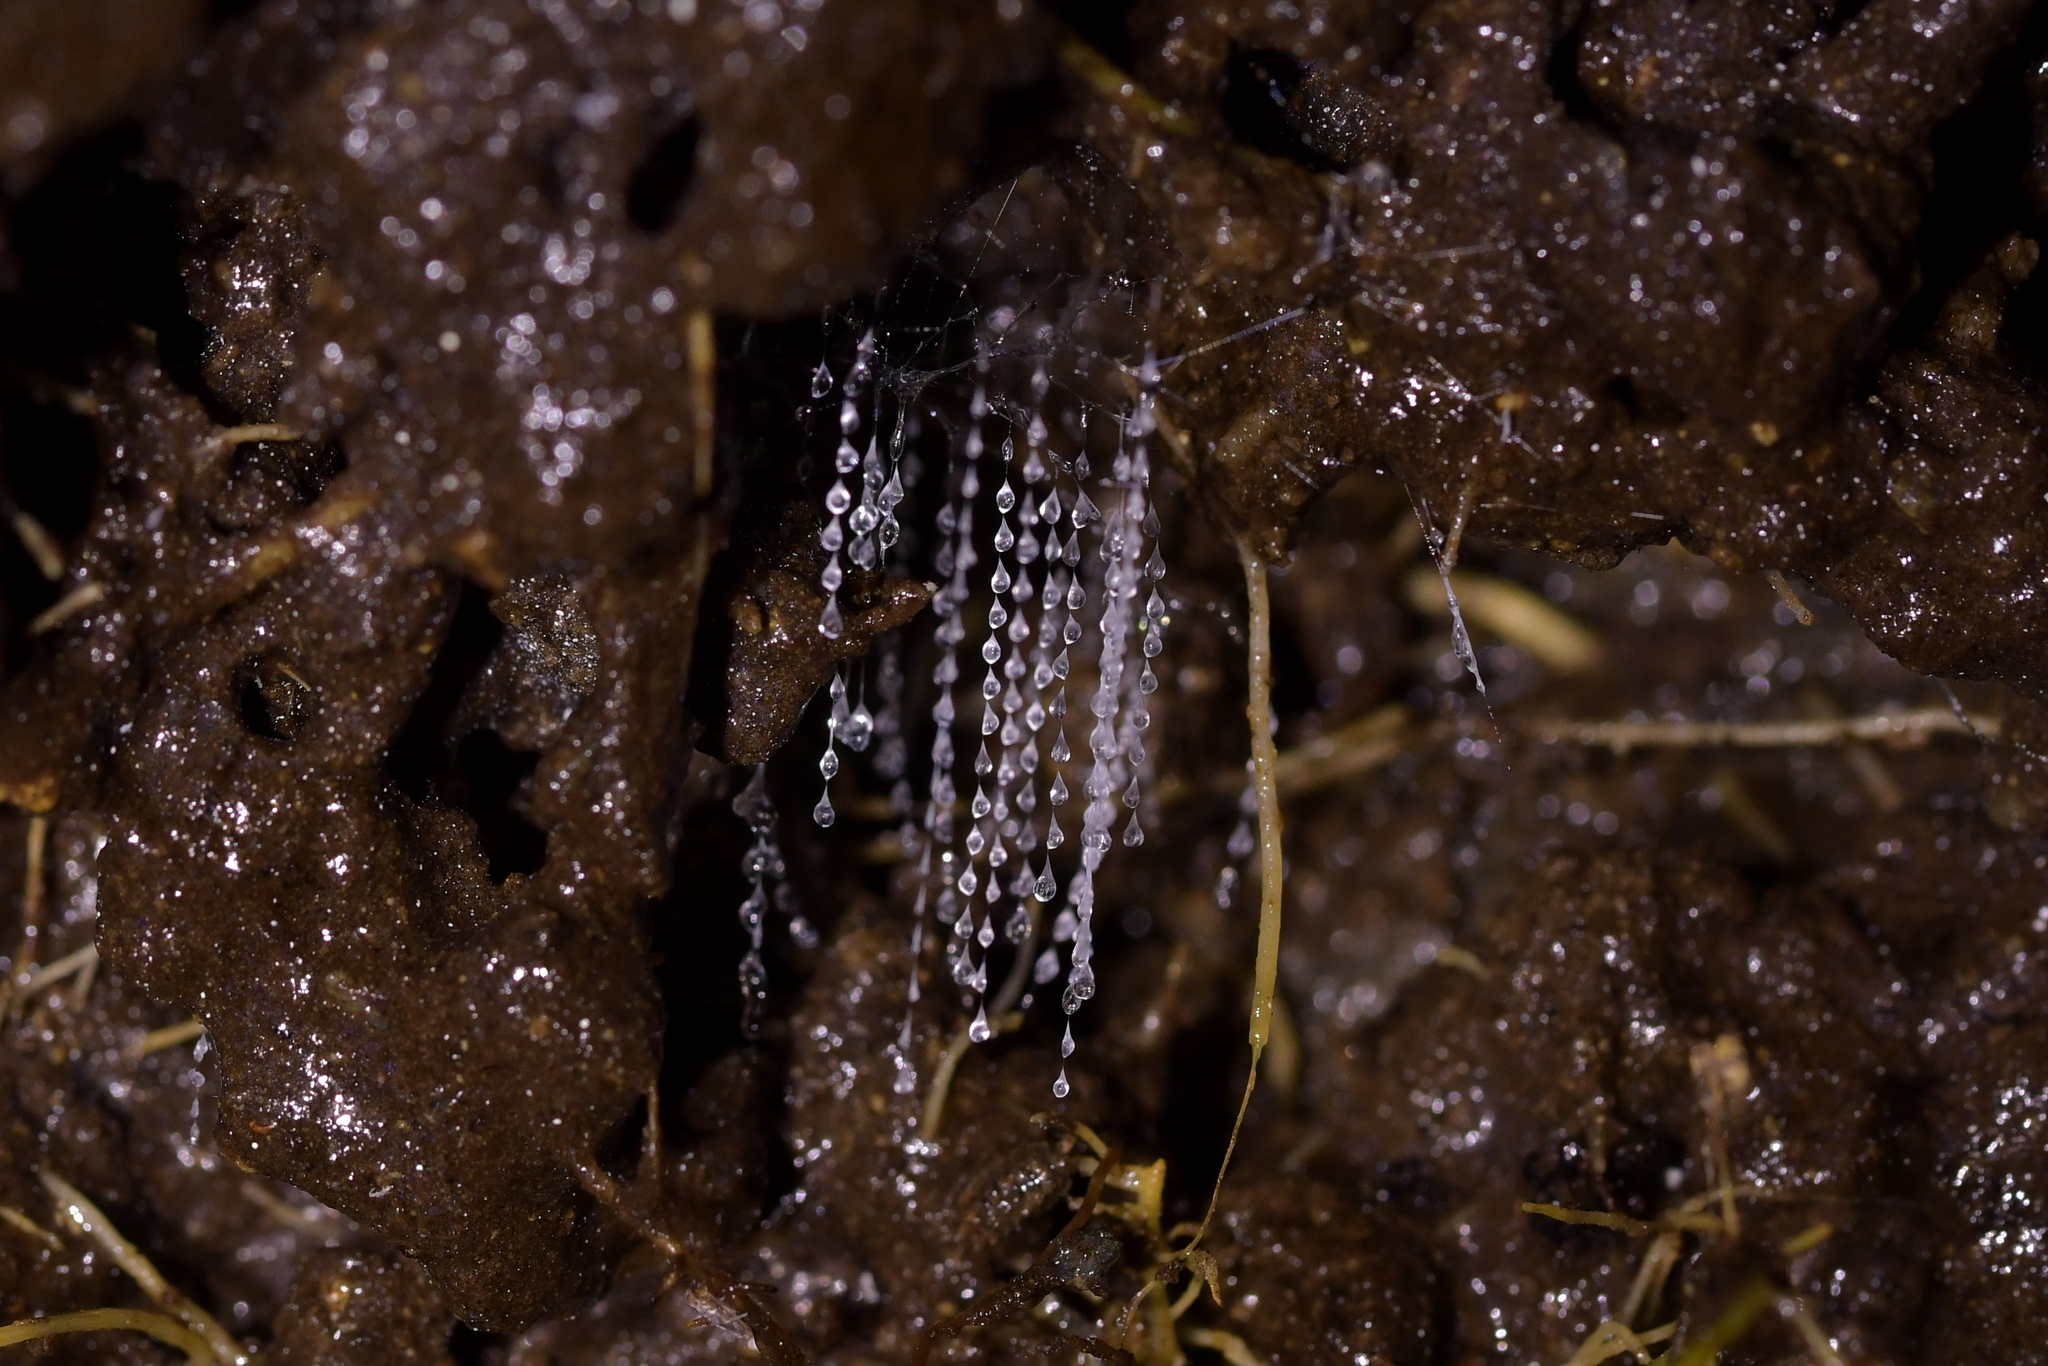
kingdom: Animalia
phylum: Arthropoda
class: Insecta
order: Diptera
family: Keroplatidae
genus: Arachnocampa
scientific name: Arachnocampa luminosa
